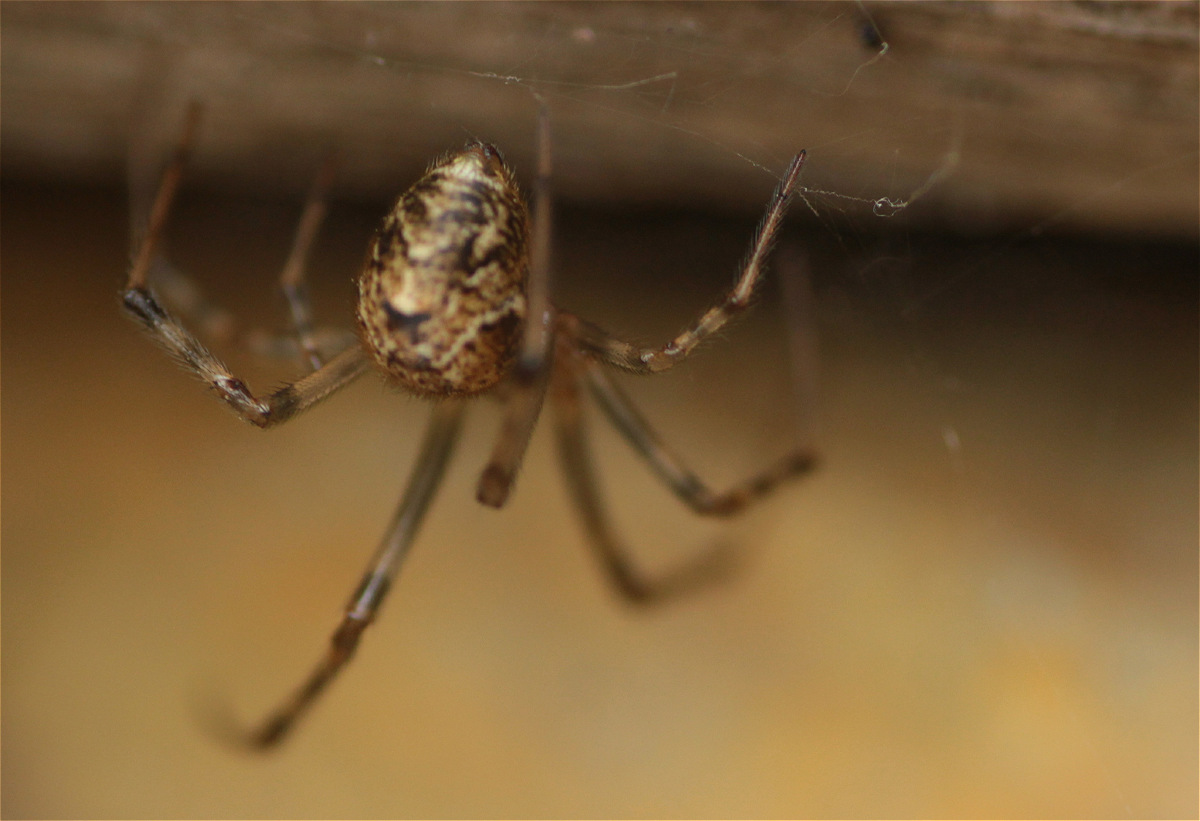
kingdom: Animalia
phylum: Arthropoda
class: Arachnida
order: Araneae
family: Theridiidae
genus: Parasteatoda
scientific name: Parasteatoda tepidariorum
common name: Common house spider
